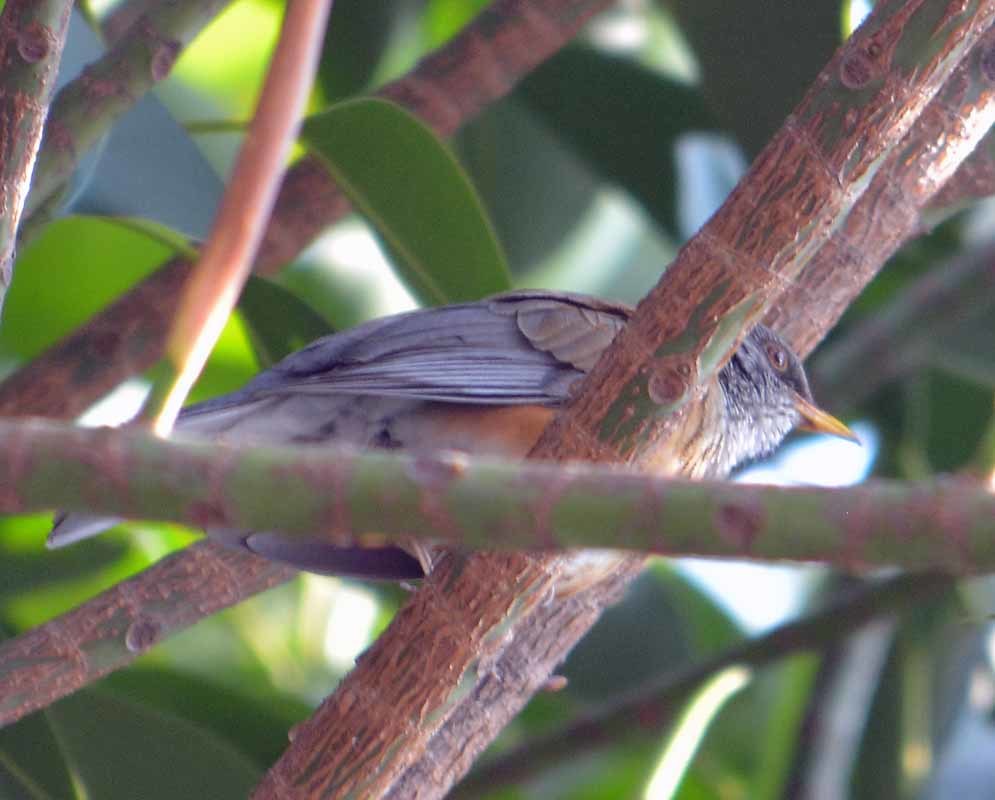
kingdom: Animalia
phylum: Chordata
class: Aves
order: Passeriformes
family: Turdidae
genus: Turdus
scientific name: Turdus rufopalliatus
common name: Rufous-backed robin
